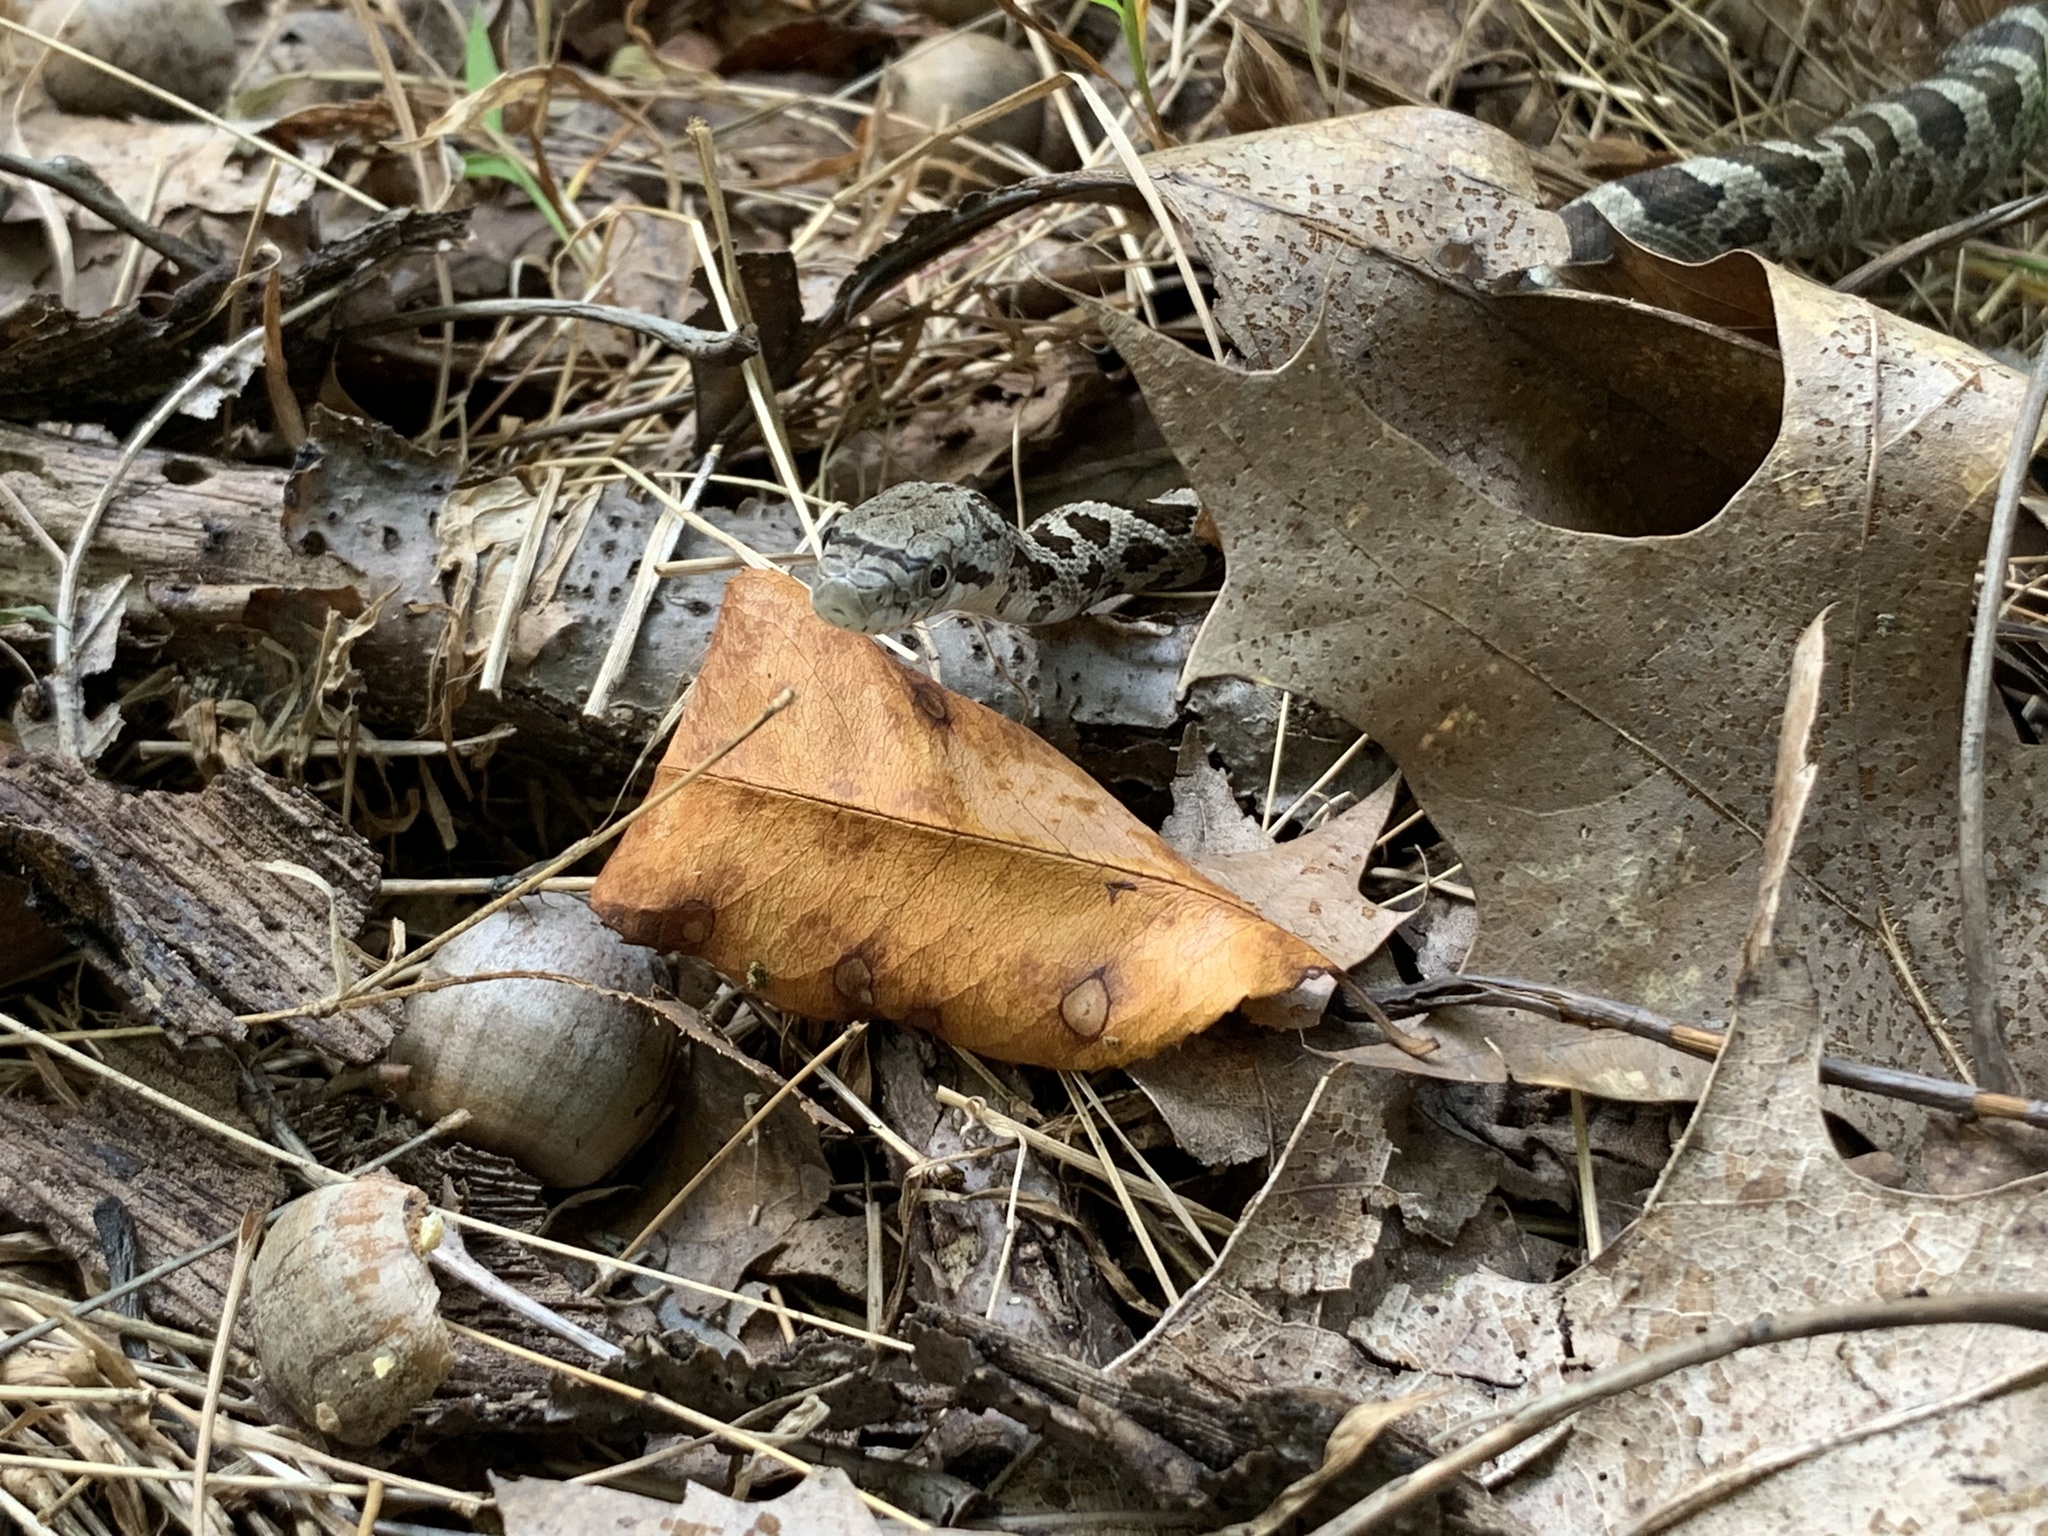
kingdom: Animalia
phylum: Chordata
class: Squamata
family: Colubridae
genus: Pantherophis
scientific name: Pantherophis spiloides
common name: Gray rat snake
